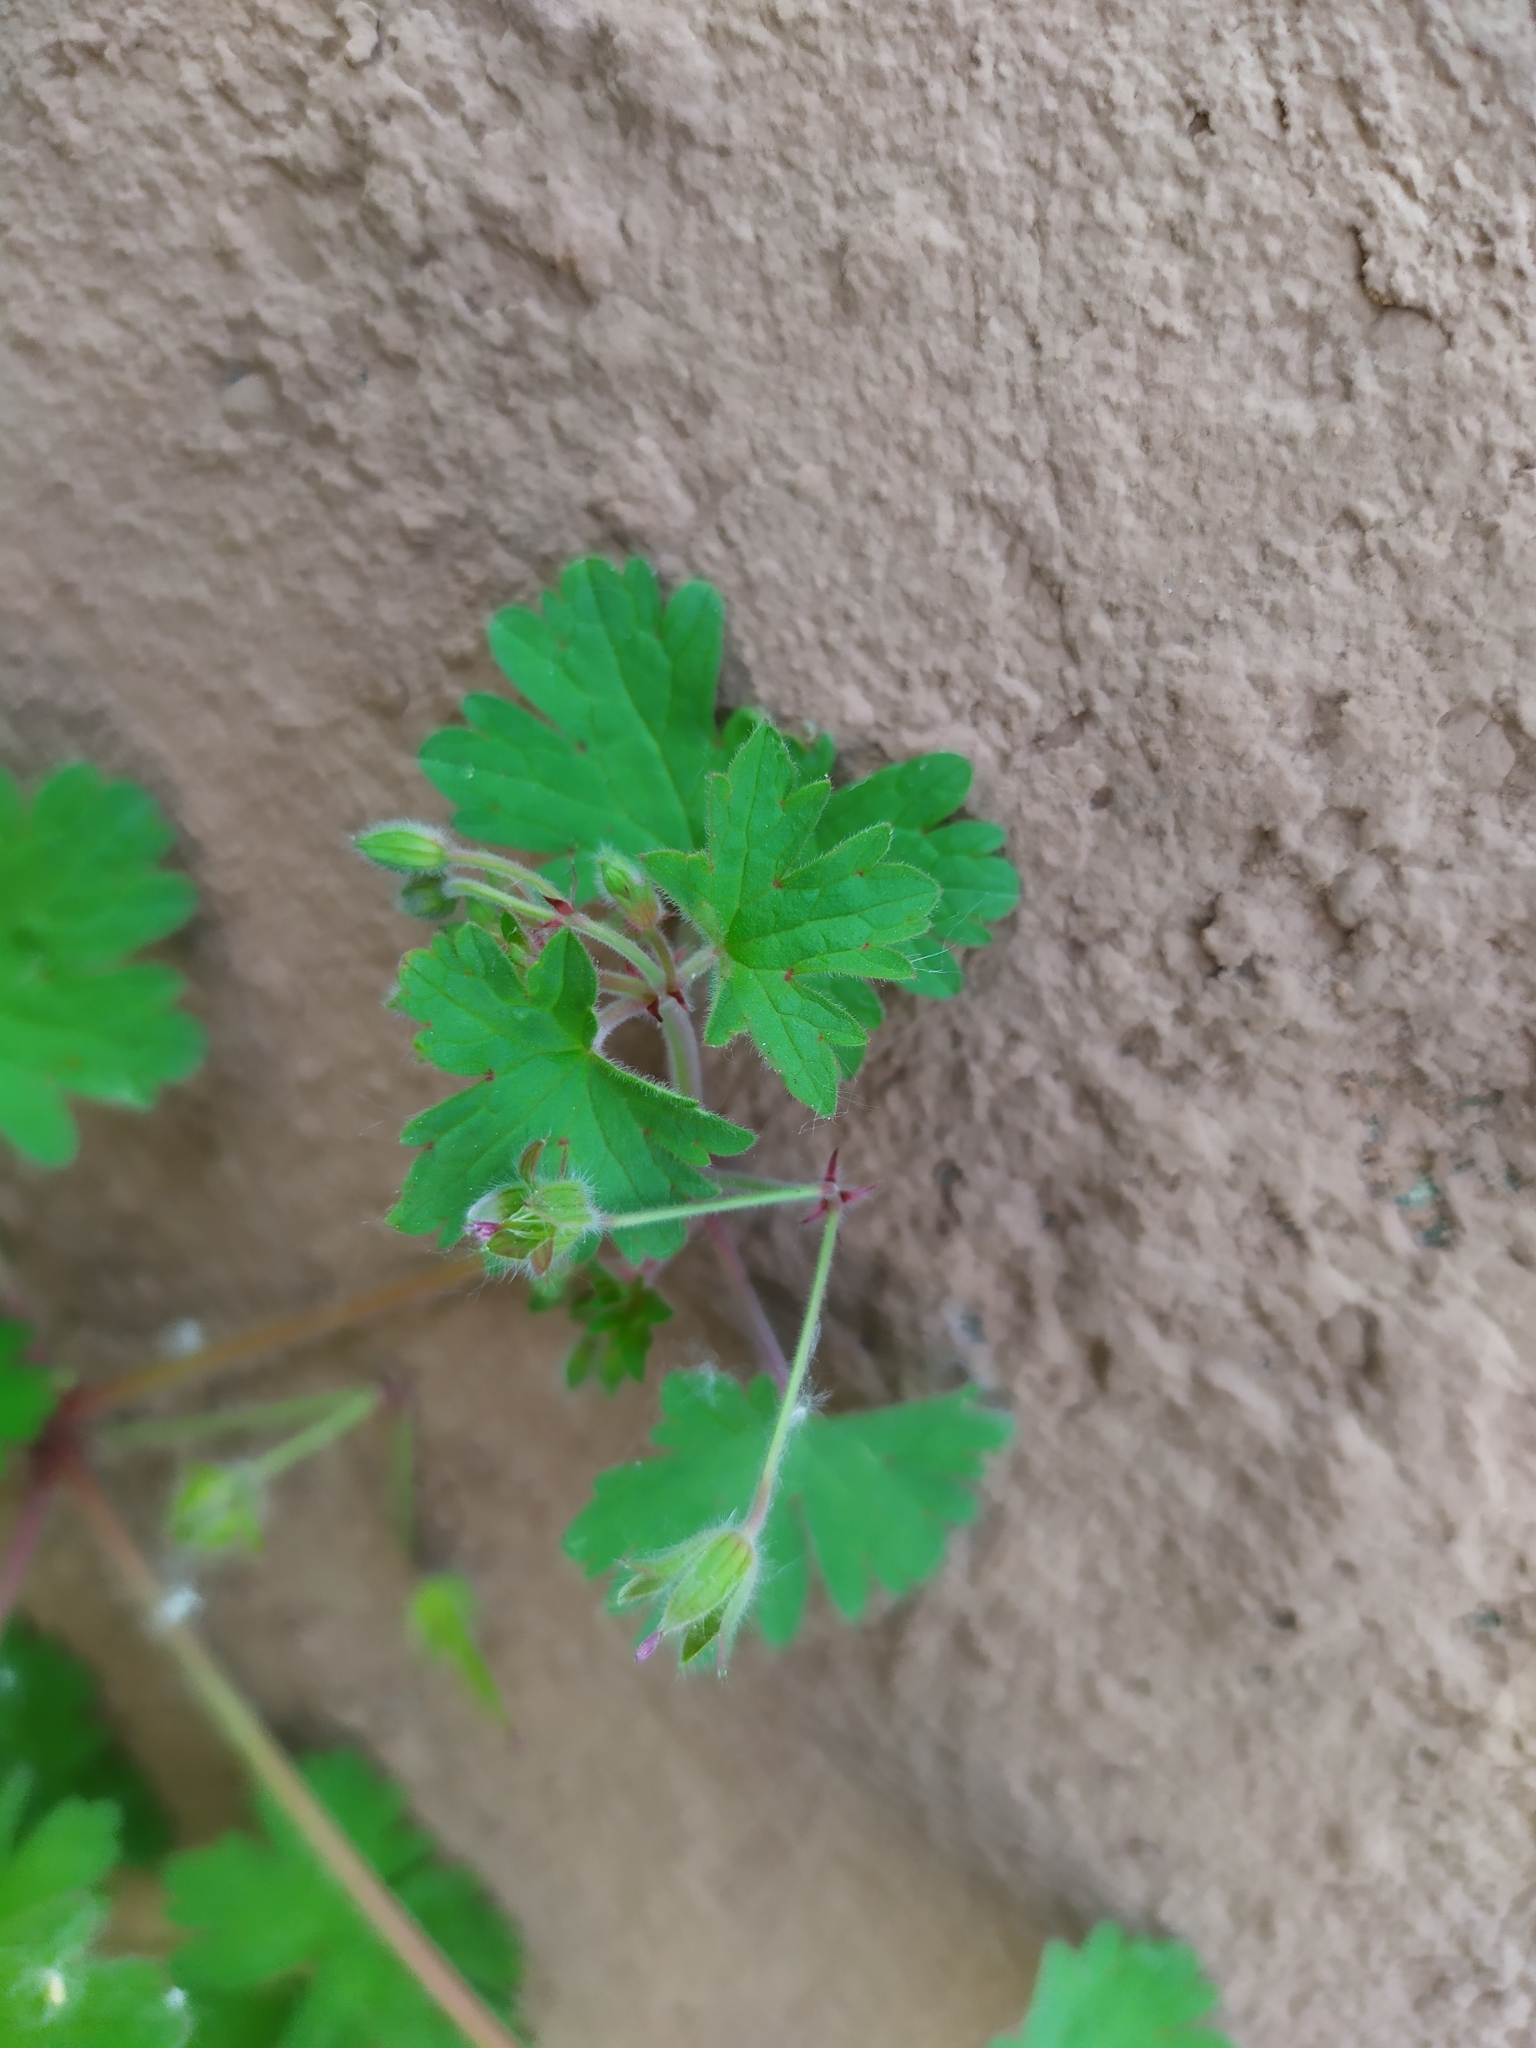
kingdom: Plantae
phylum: Tracheophyta
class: Magnoliopsida
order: Geraniales
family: Geraniaceae
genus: Geranium
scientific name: Geranium rotundifolium
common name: Round-leaved crane's-bill
